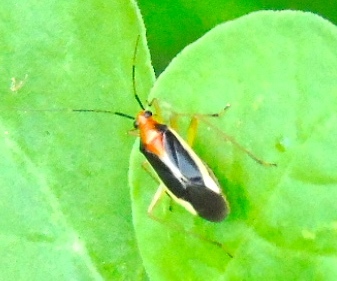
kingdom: Animalia
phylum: Arthropoda
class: Insecta
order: Hemiptera
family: Miridae
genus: Ganocapsus
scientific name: Ganocapsus filiformis
